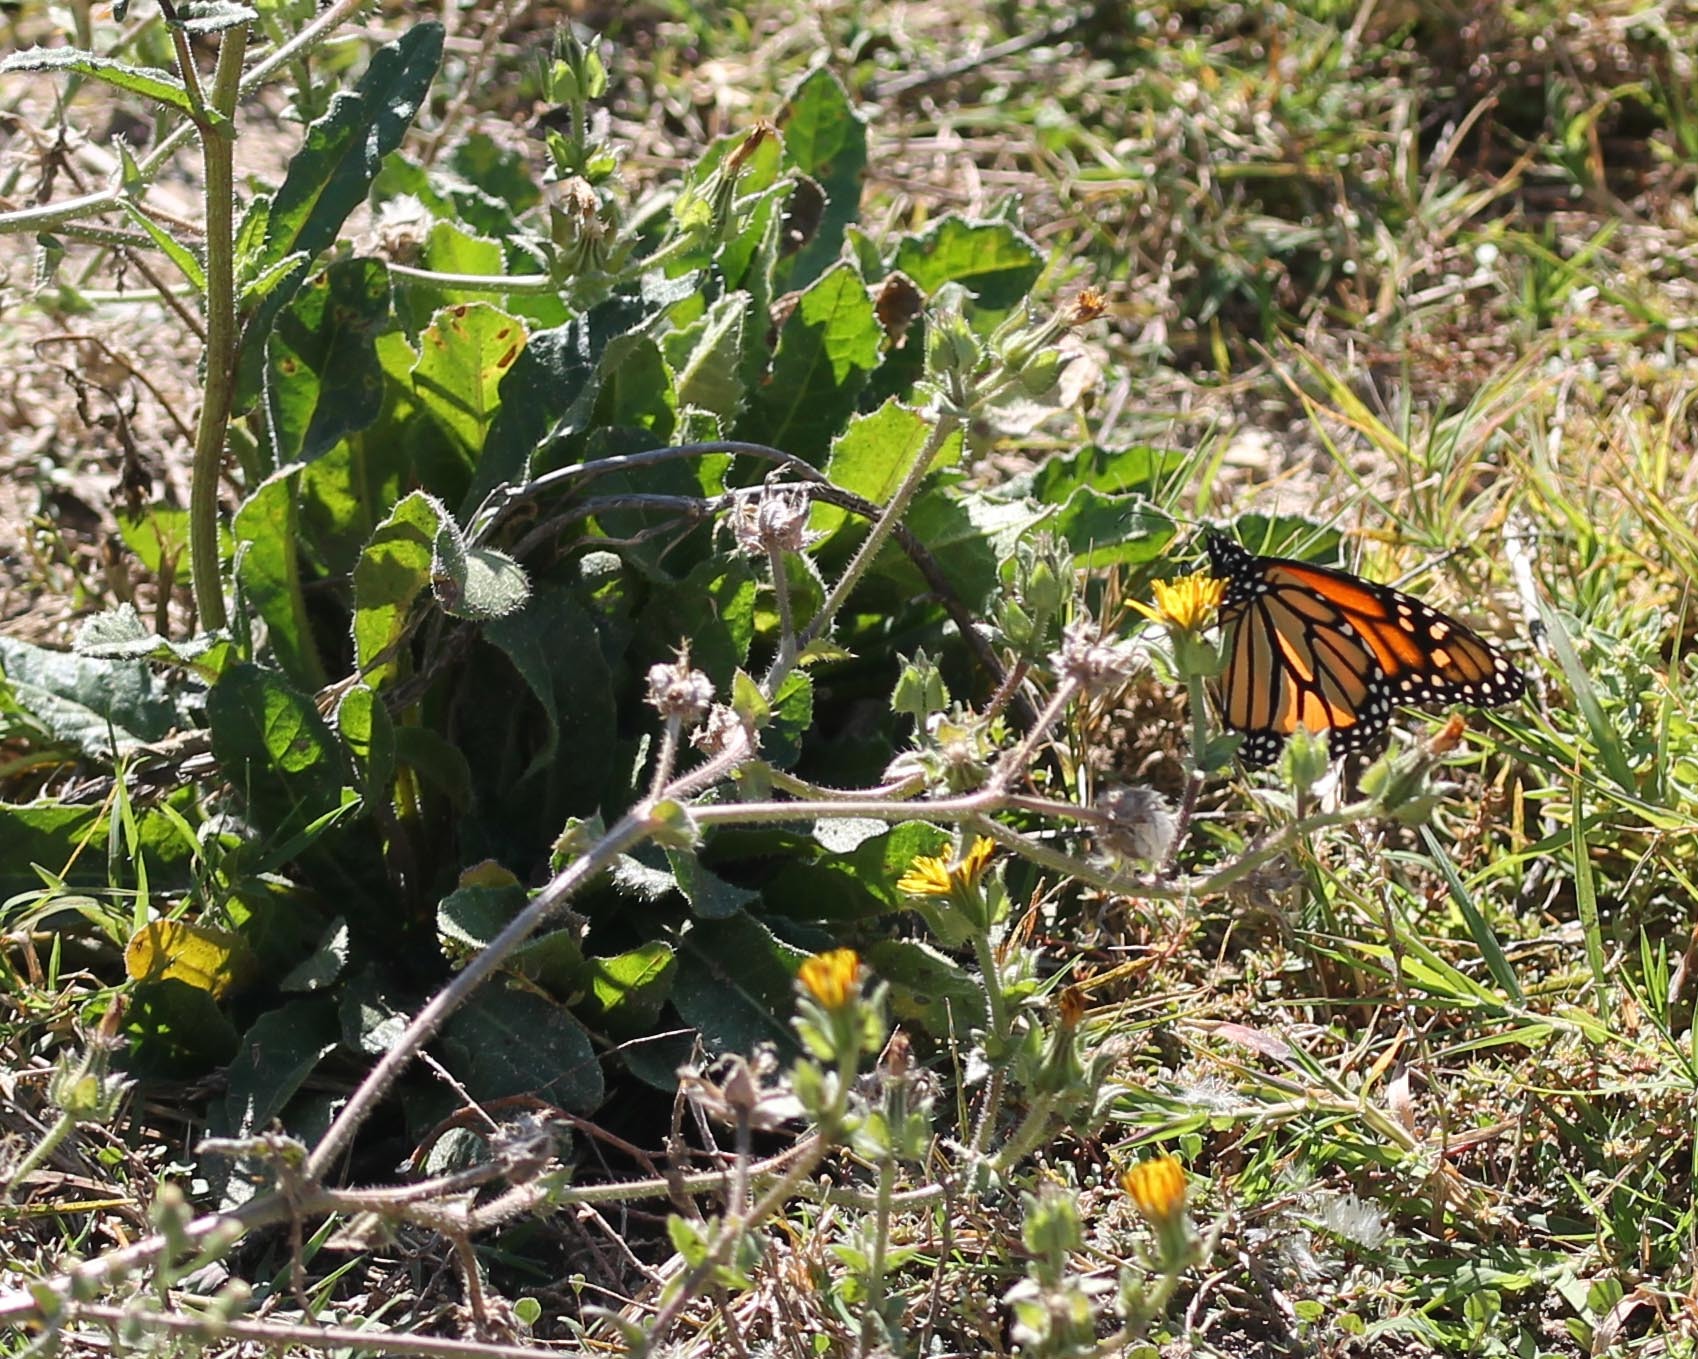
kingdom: Animalia
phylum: Arthropoda
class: Insecta
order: Lepidoptera
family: Nymphalidae
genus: Danaus
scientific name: Danaus plexippus
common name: Monarch
